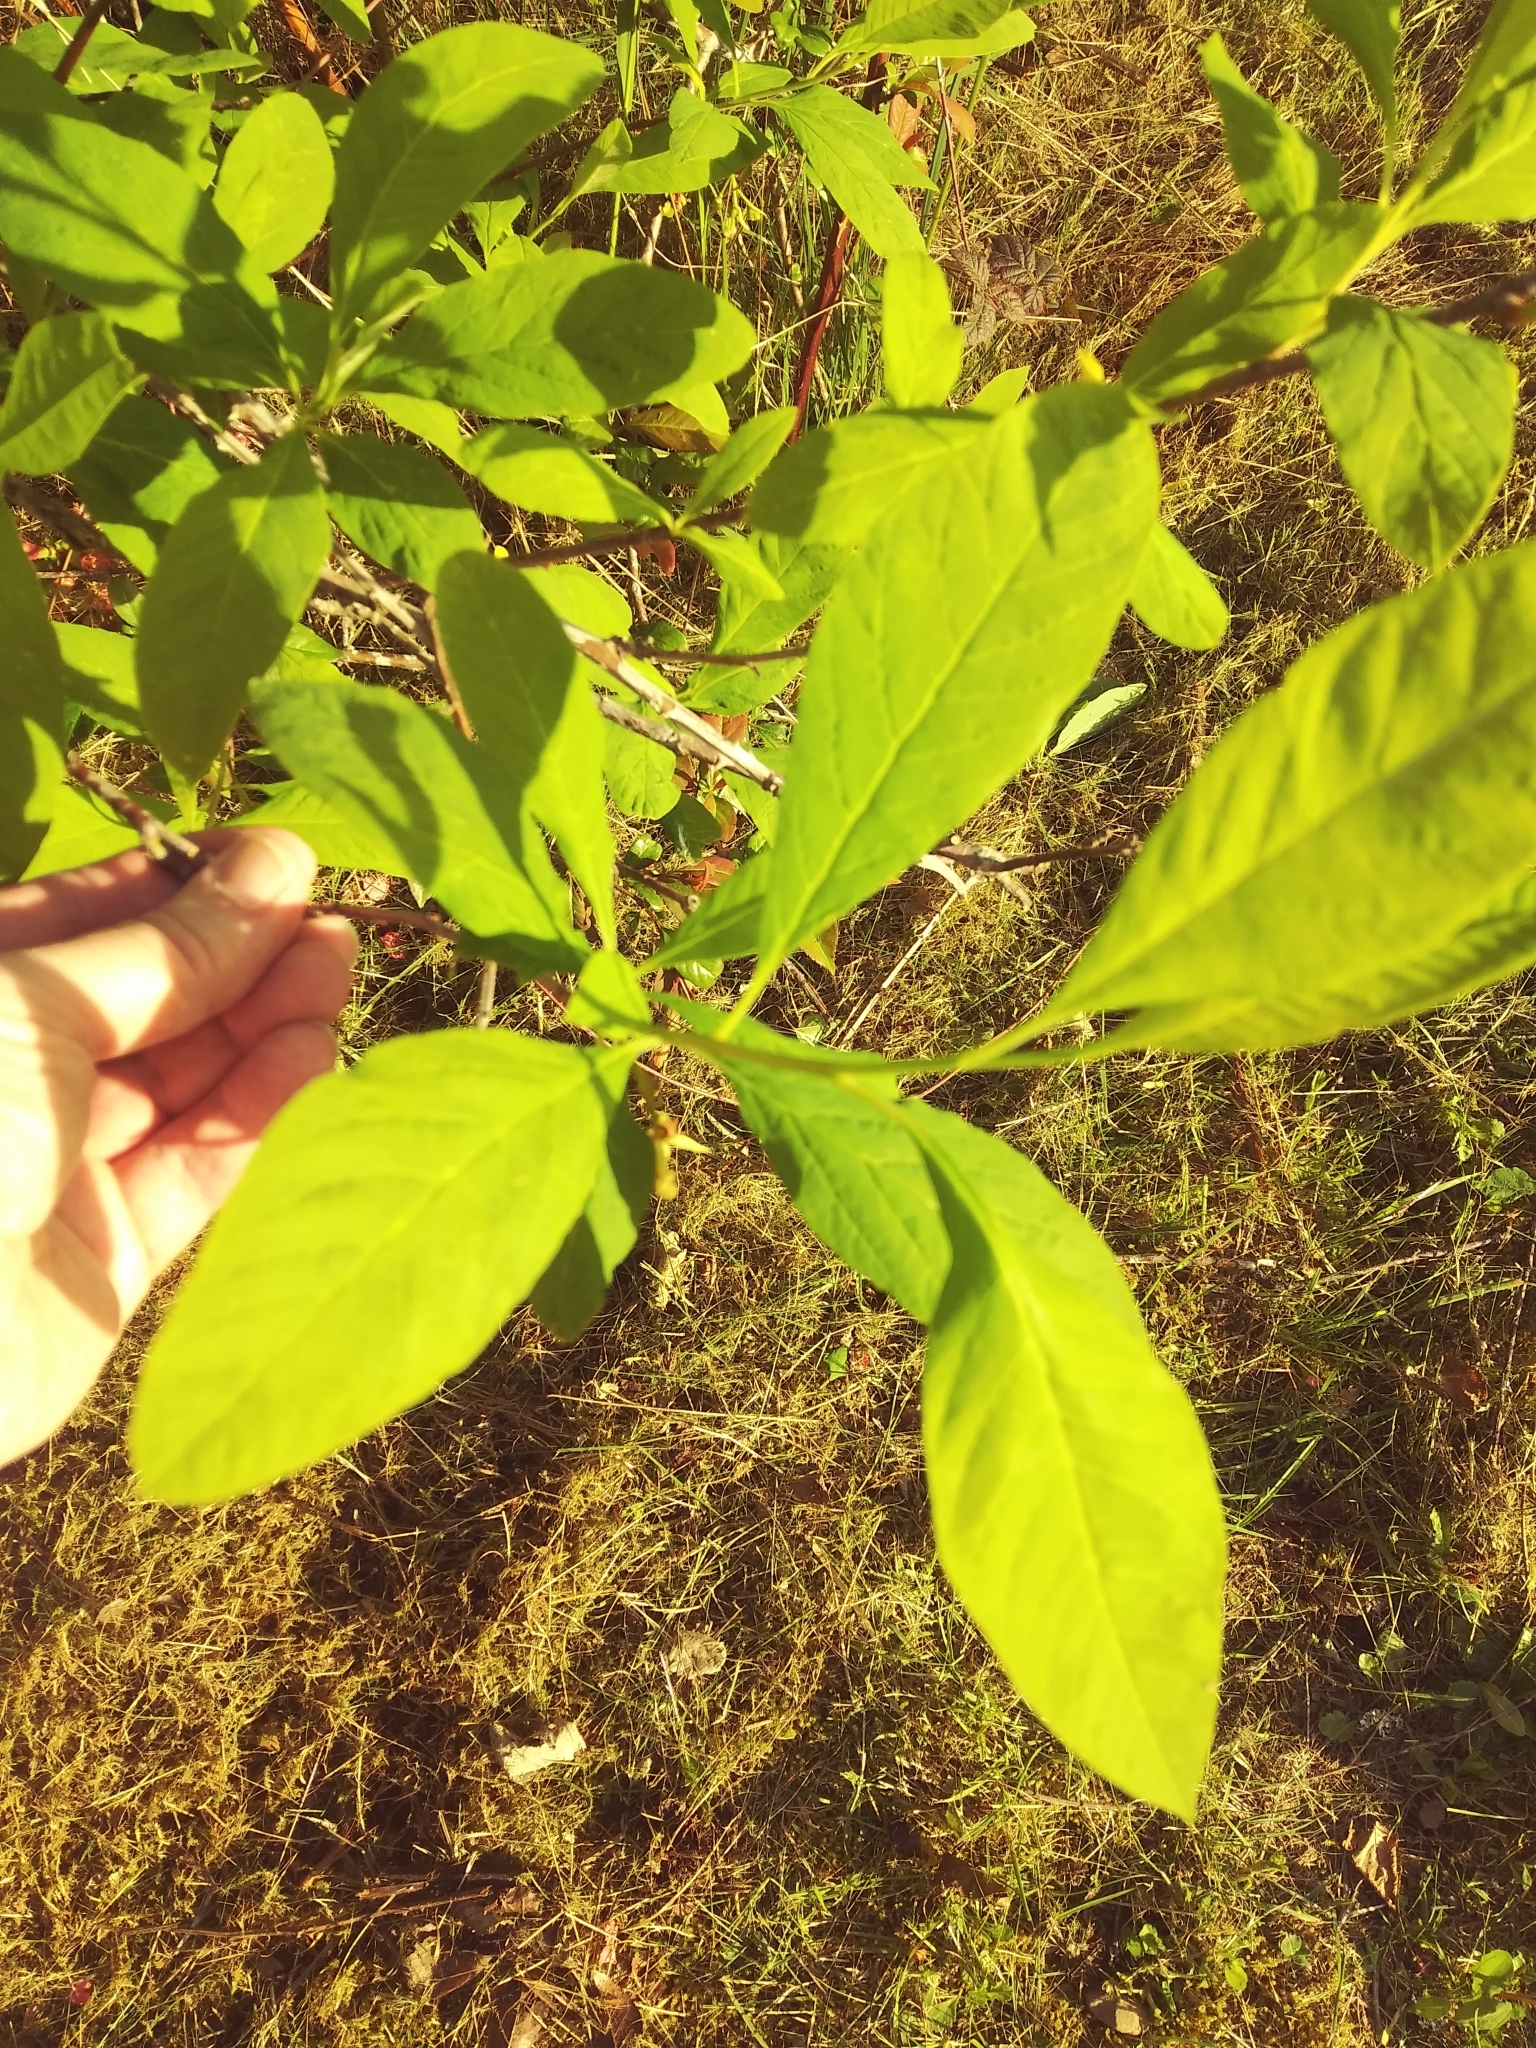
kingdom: Plantae
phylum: Tracheophyta
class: Magnoliopsida
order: Rosales
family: Rosaceae
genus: Oemleria
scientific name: Oemleria cerasiformis
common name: Osoberry
